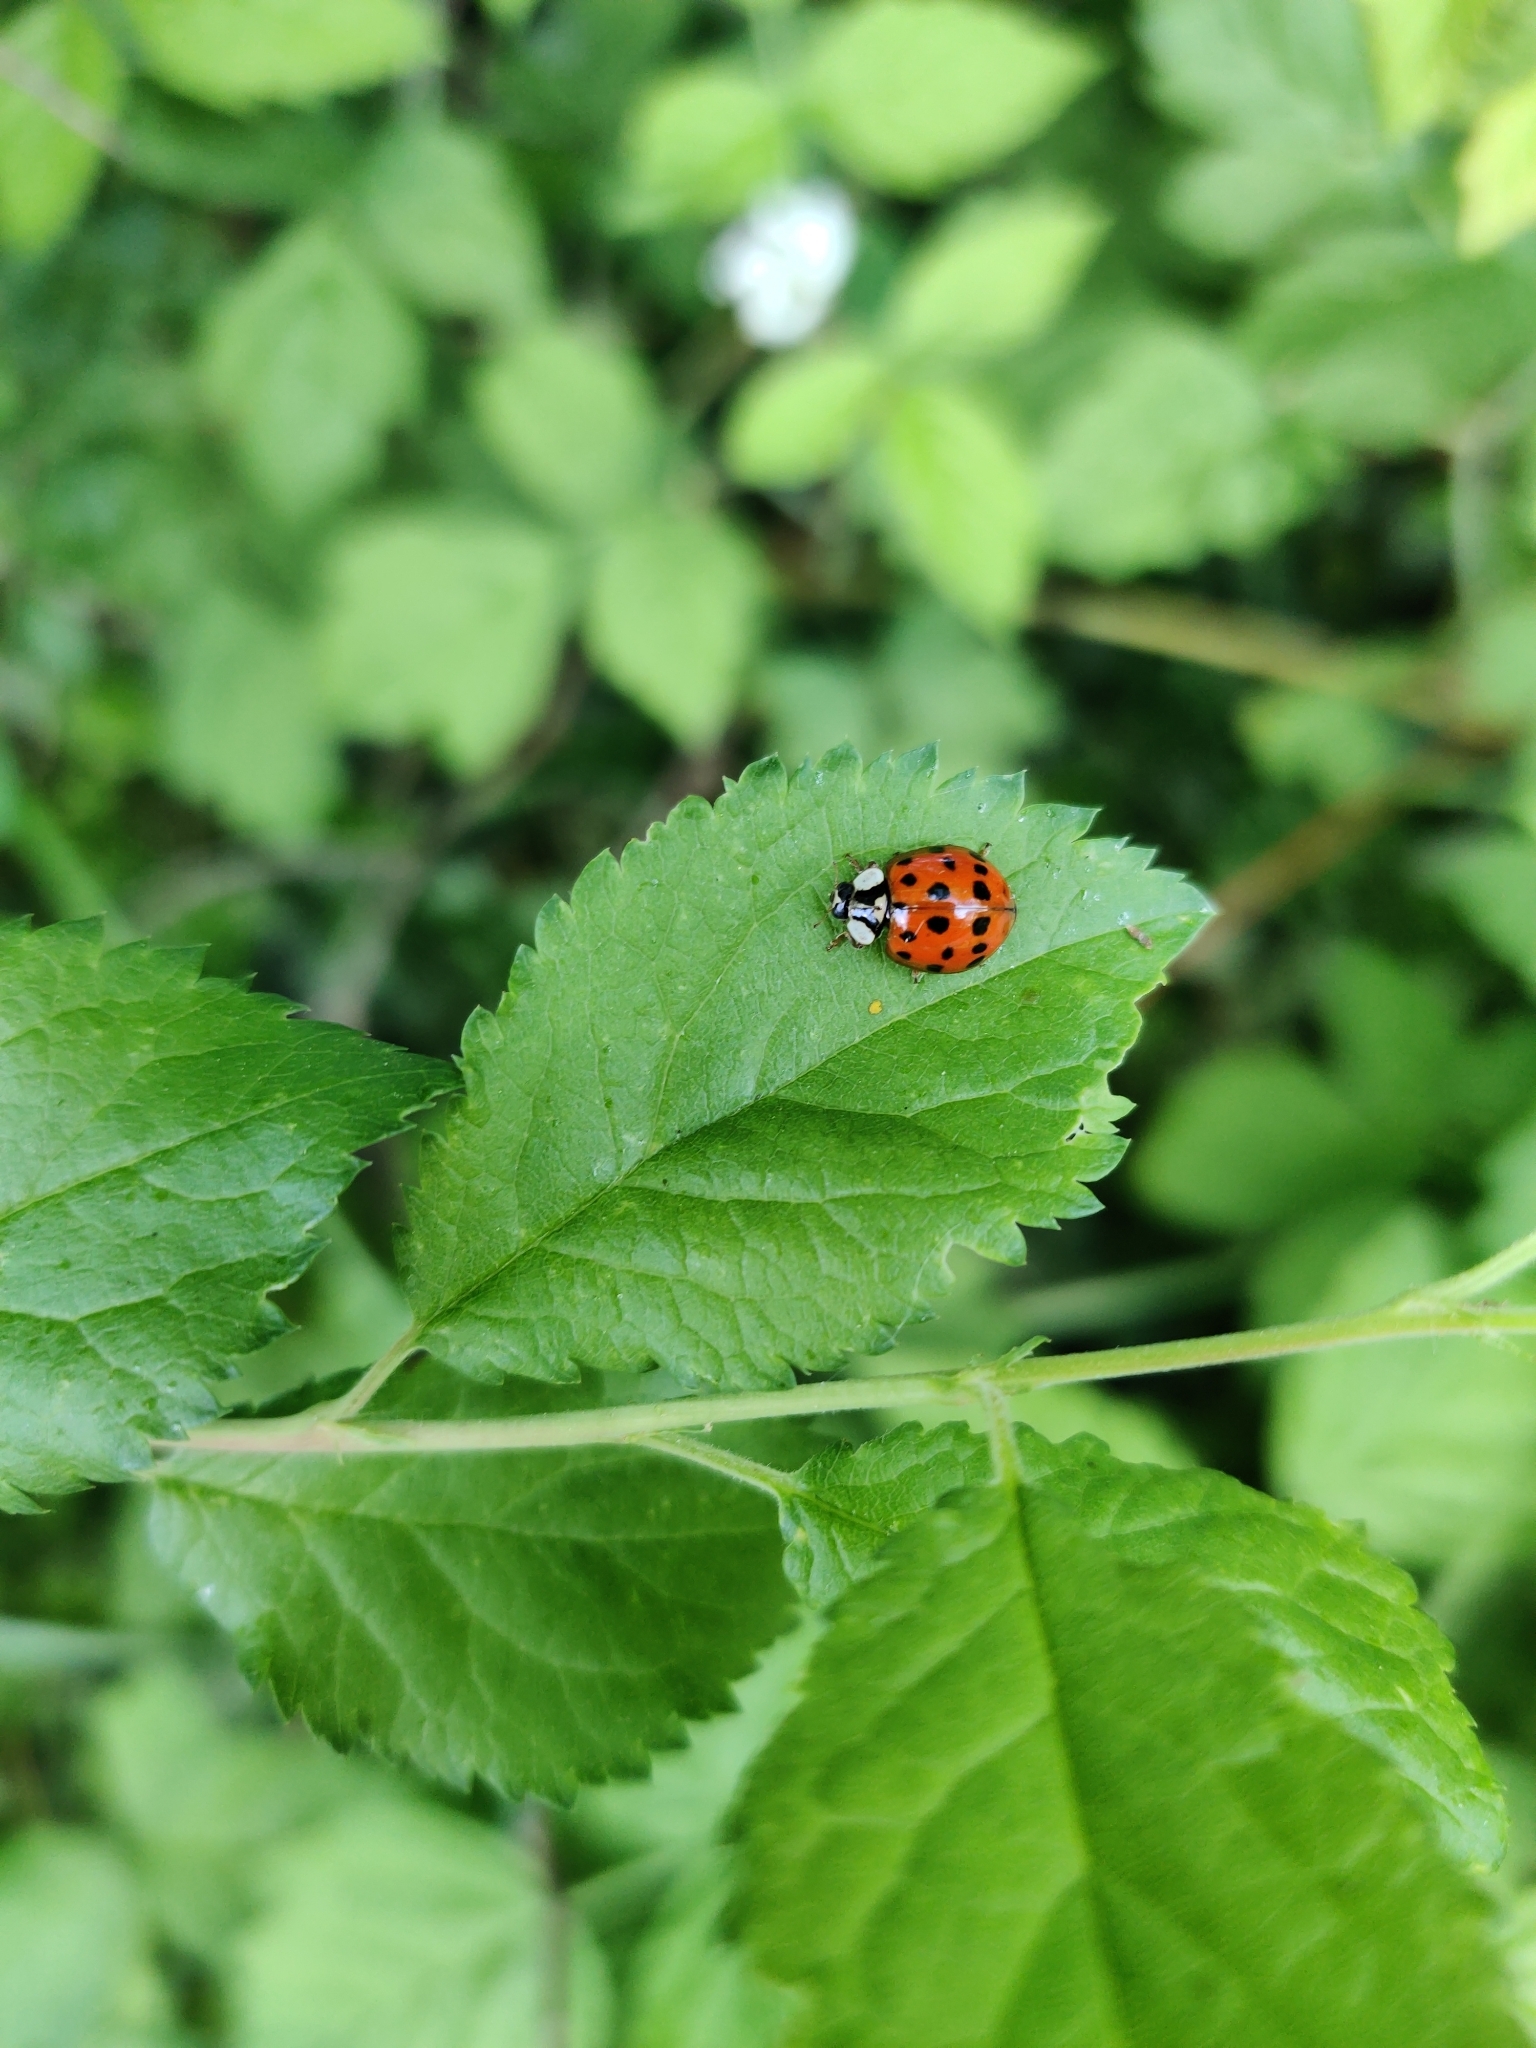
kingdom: Animalia
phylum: Arthropoda
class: Insecta
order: Coleoptera
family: Coccinellidae
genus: Harmonia
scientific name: Harmonia axyridis
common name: Harlequin ladybird
